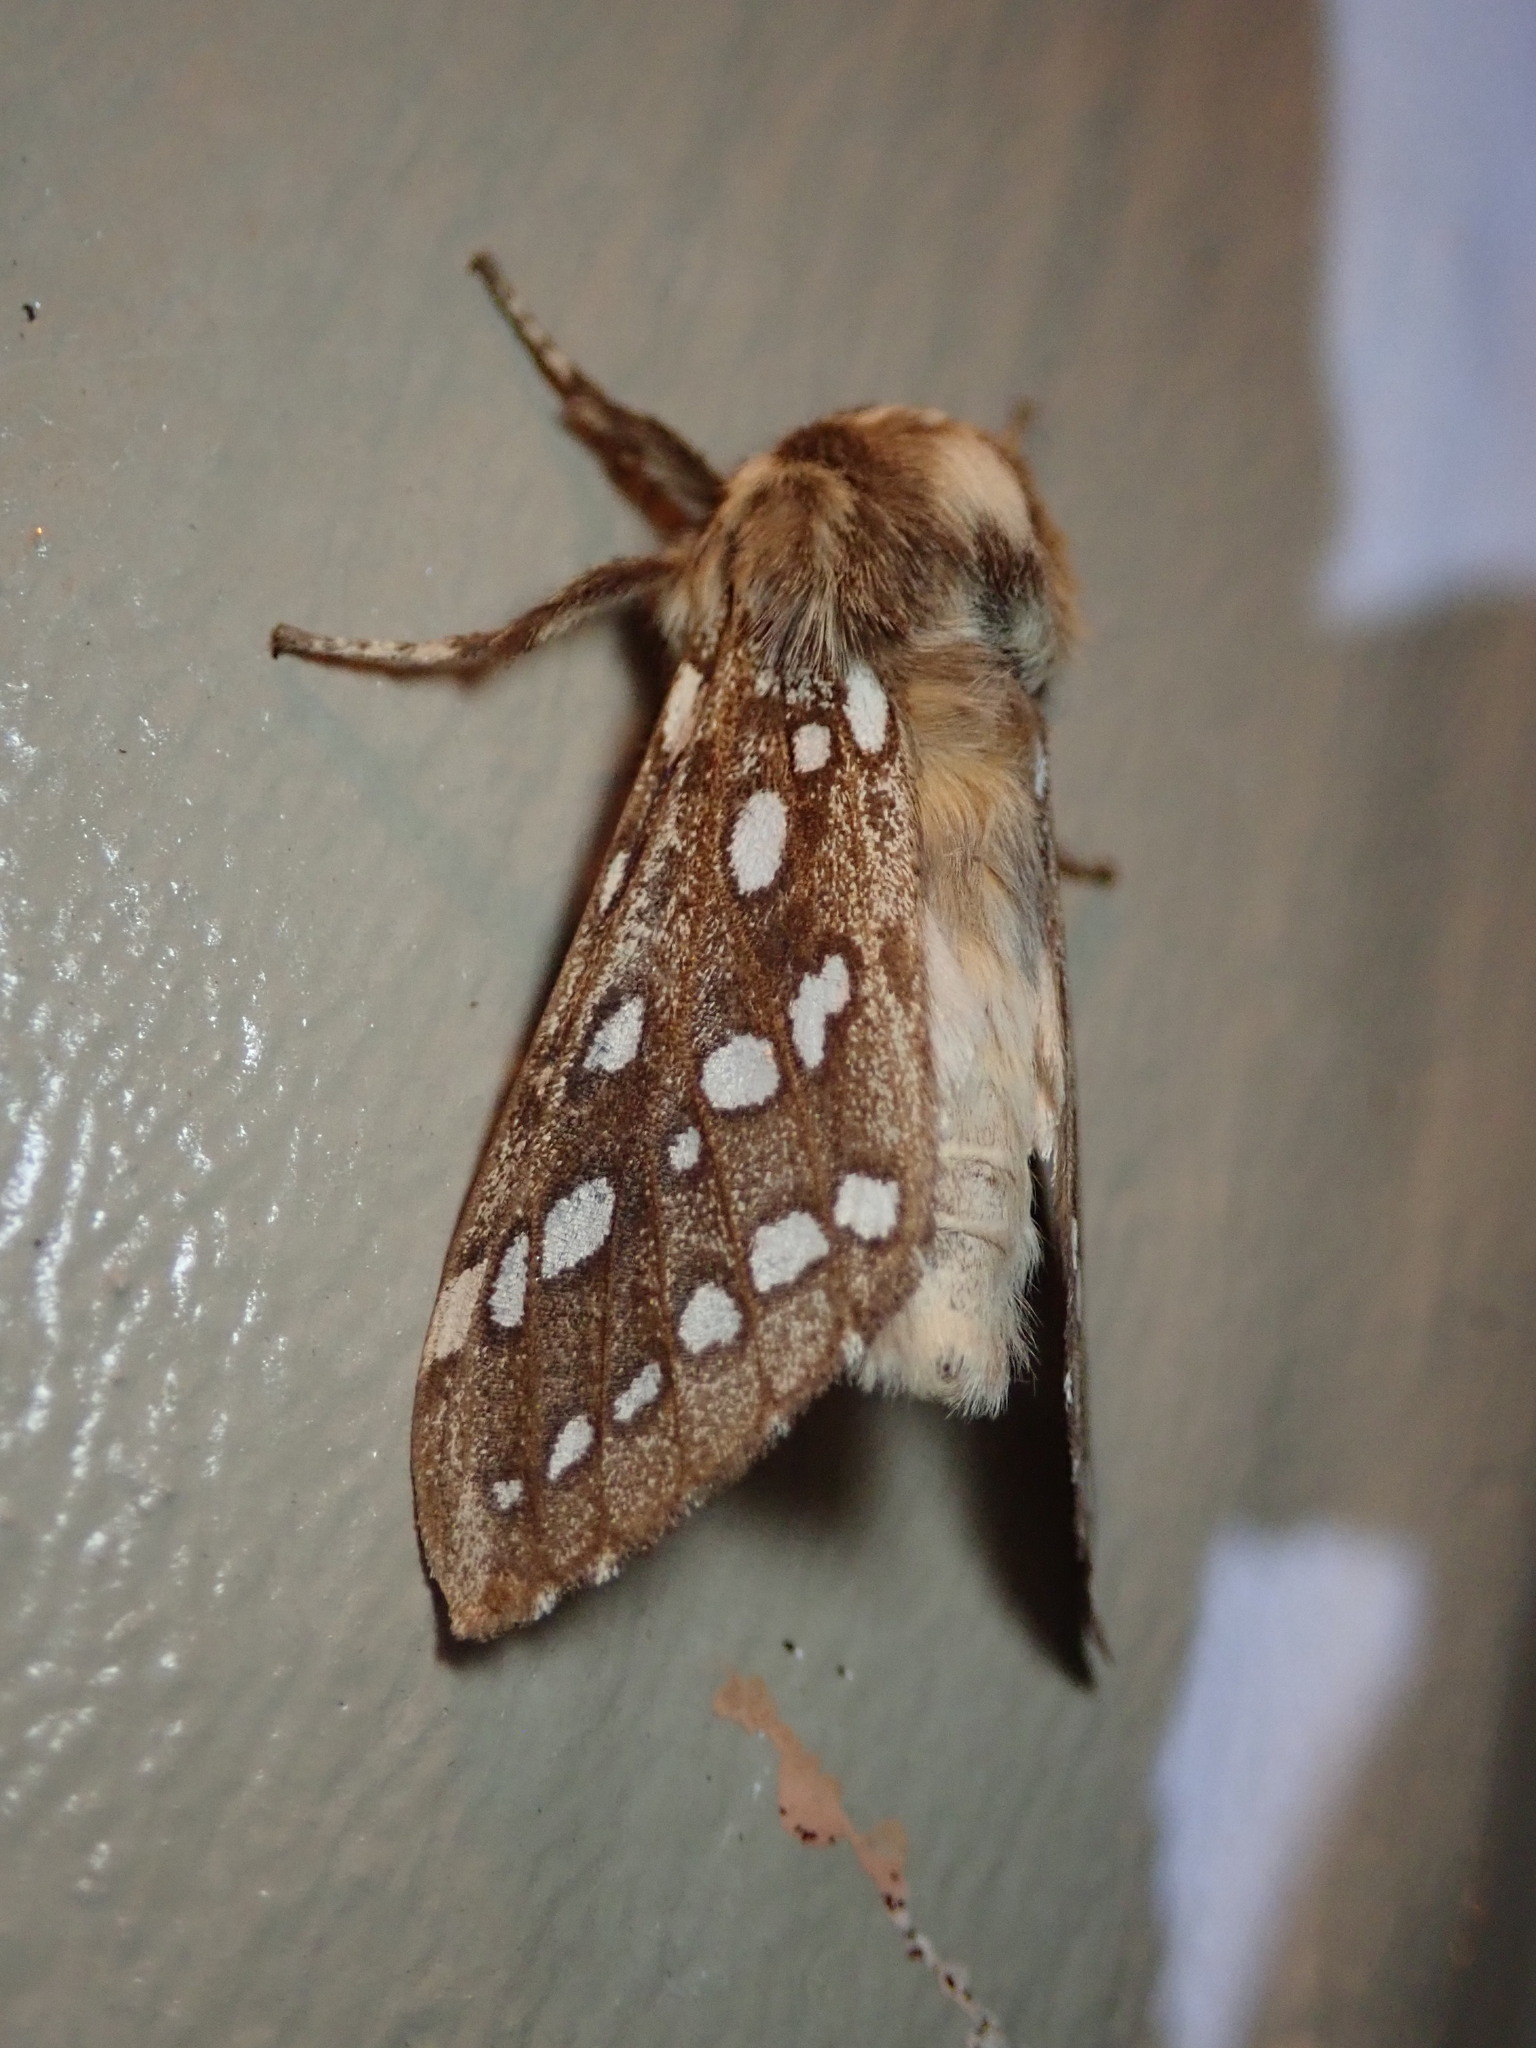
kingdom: Animalia
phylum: Arthropoda
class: Insecta
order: Lepidoptera
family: Erebidae
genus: Lophocampa
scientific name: Lophocampa argentata
